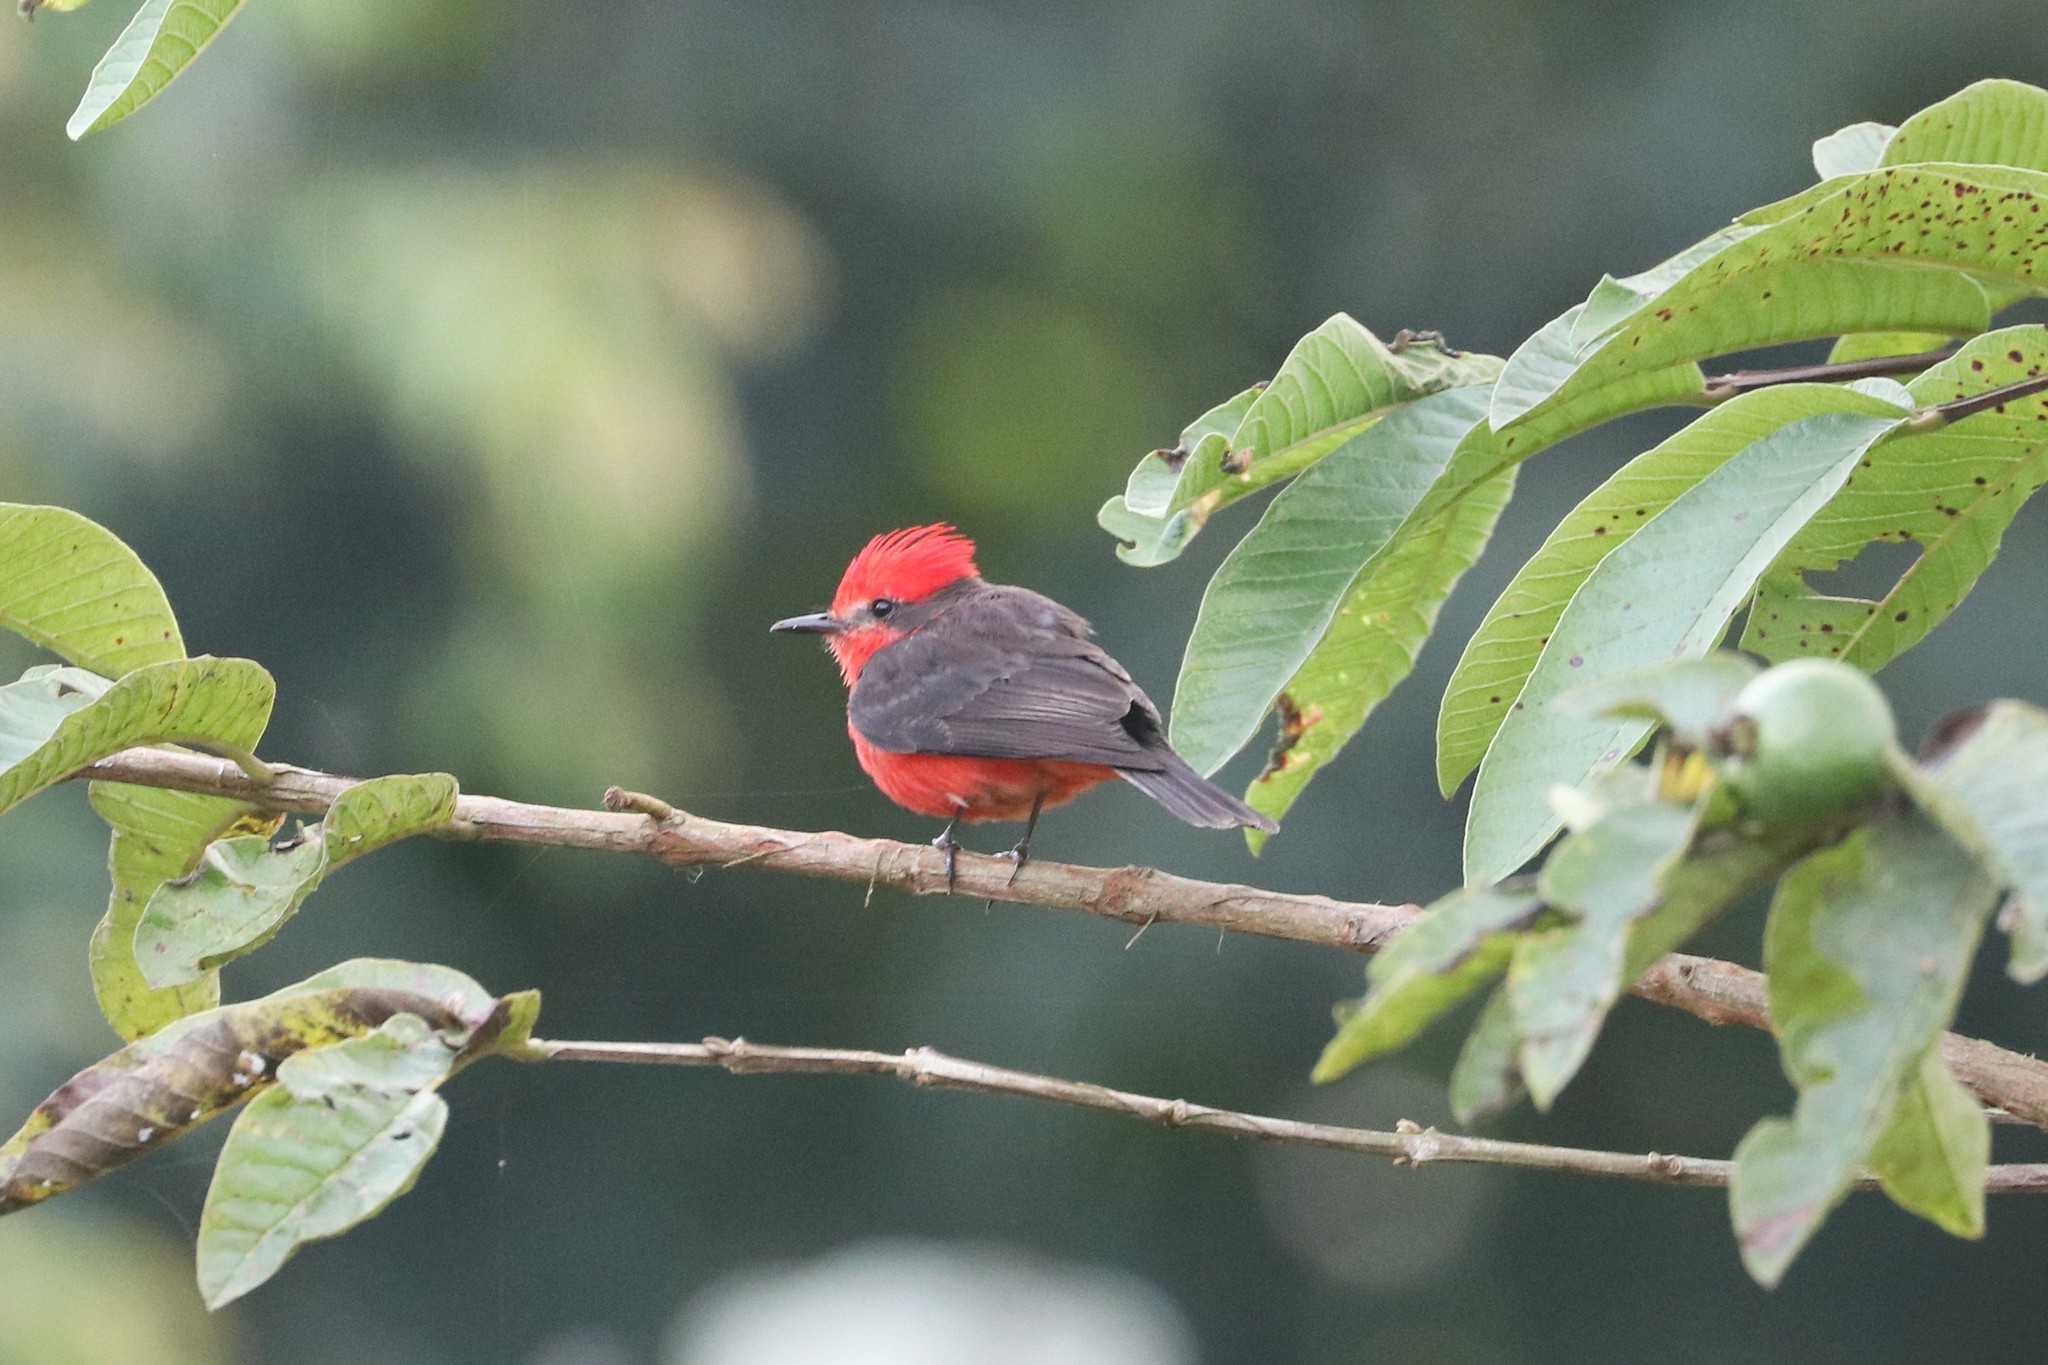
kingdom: Animalia
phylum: Chordata
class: Aves
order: Passeriformes
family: Tyrannidae
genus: Pyrocephalus
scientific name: Pyrocephalus rubinus
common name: Vermilion flycatcher
